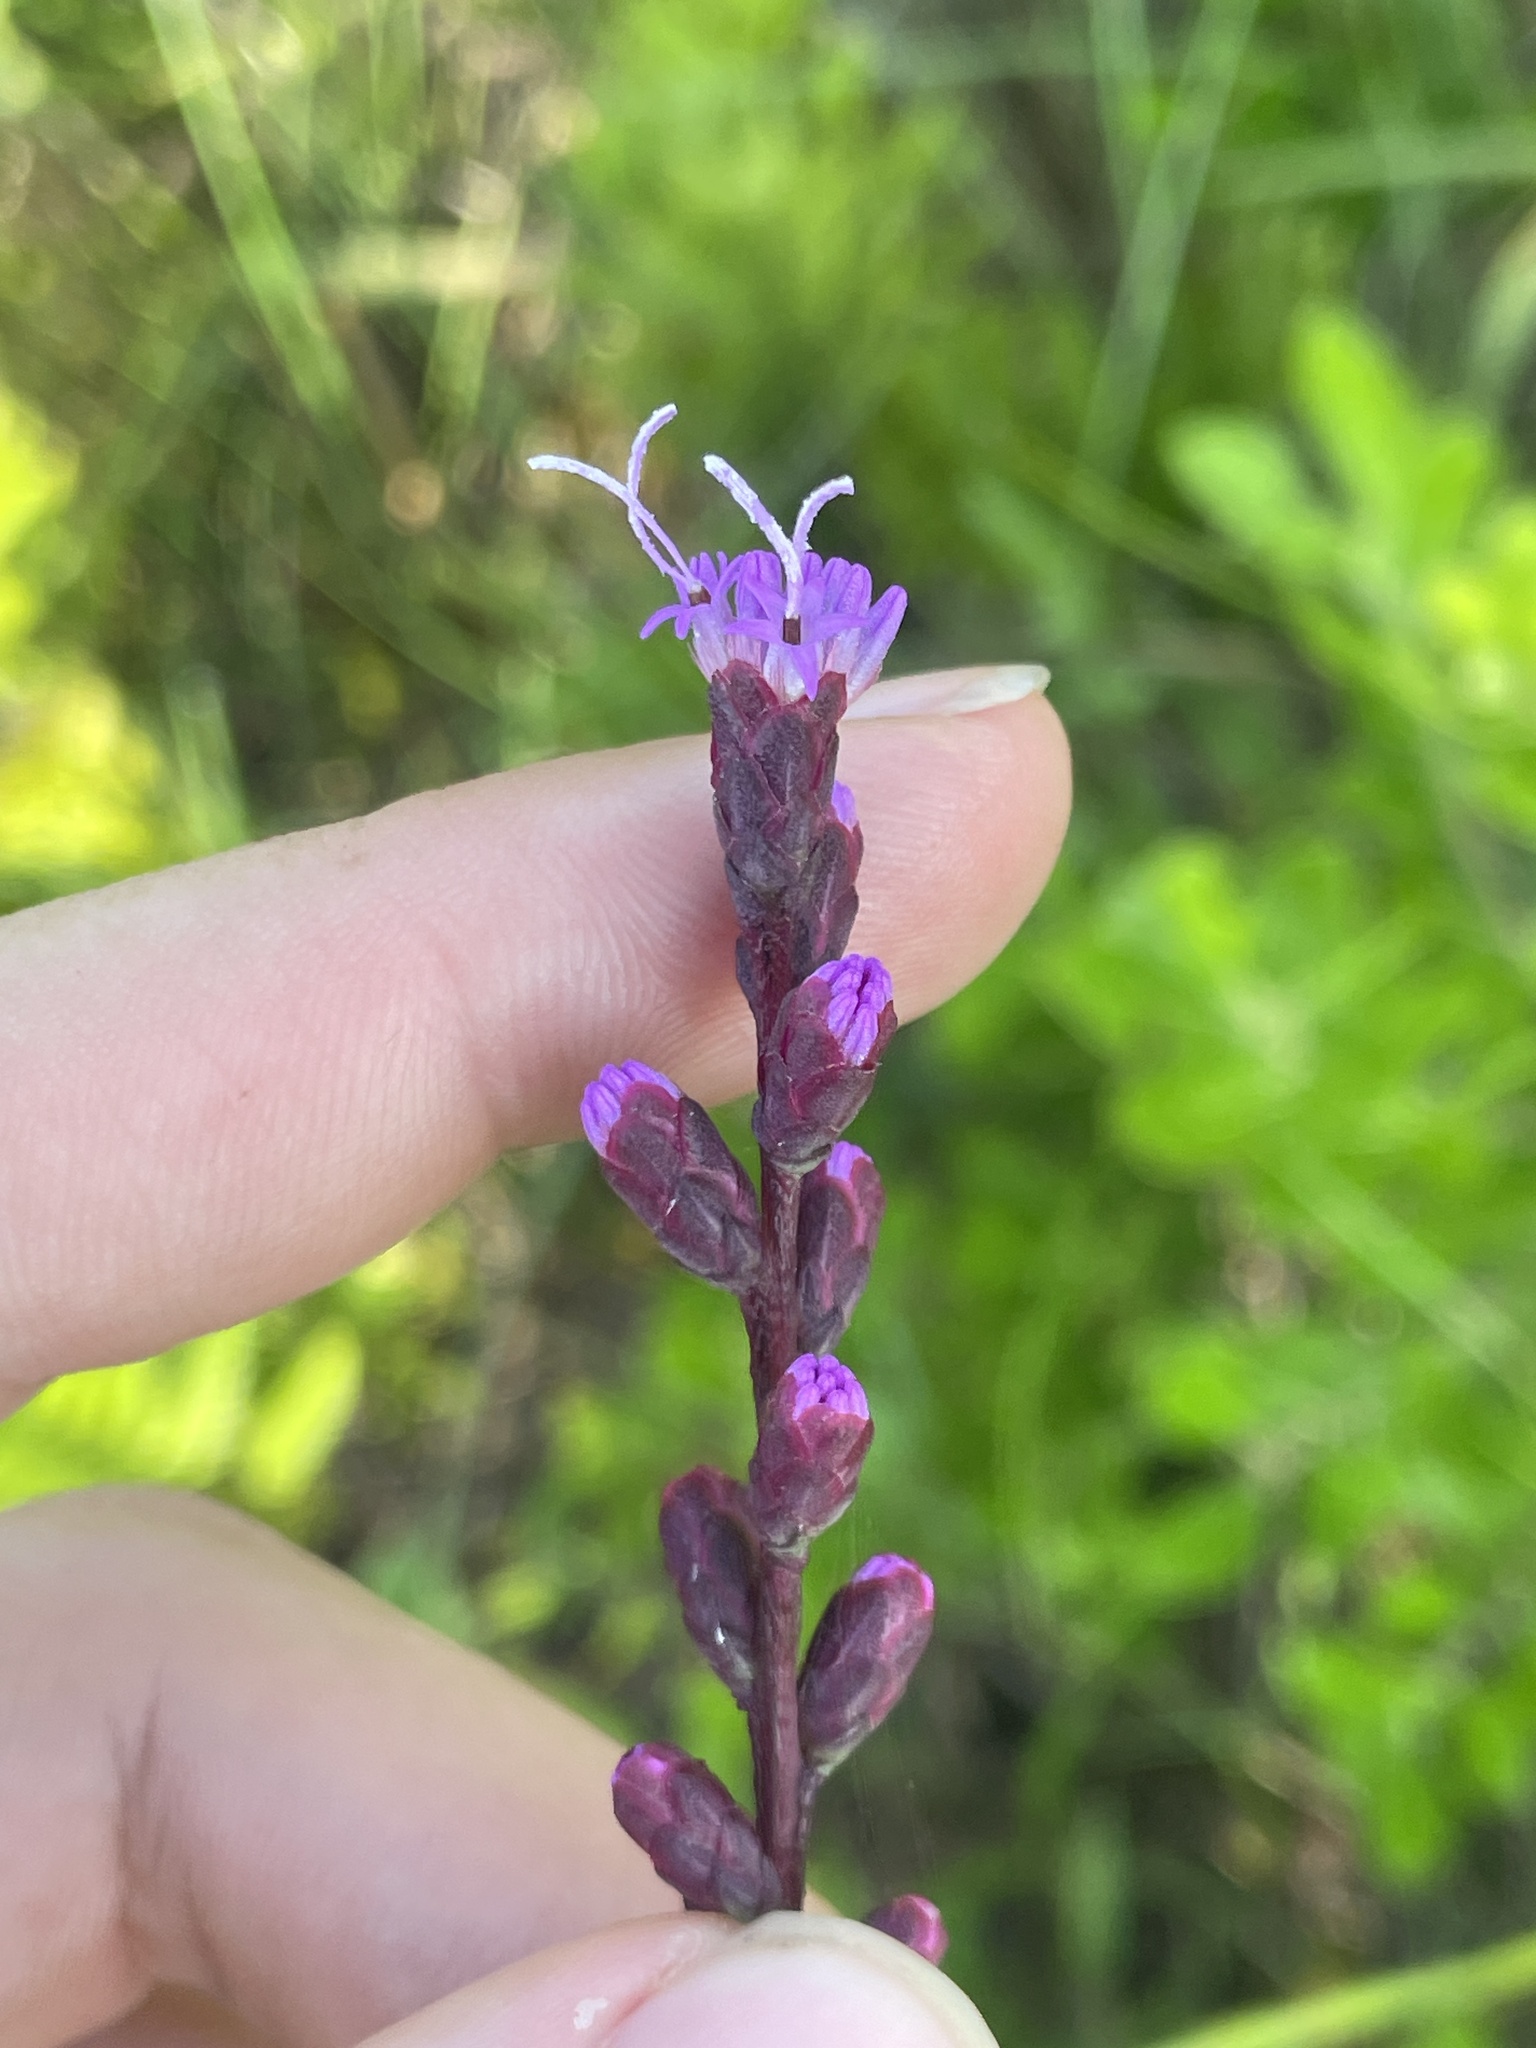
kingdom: Plantae
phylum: Tracheophyta
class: Magnoliopsida
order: Asterales
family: Asteraceae
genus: Liatris
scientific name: Liatris spicata
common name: Florist gayfeather
